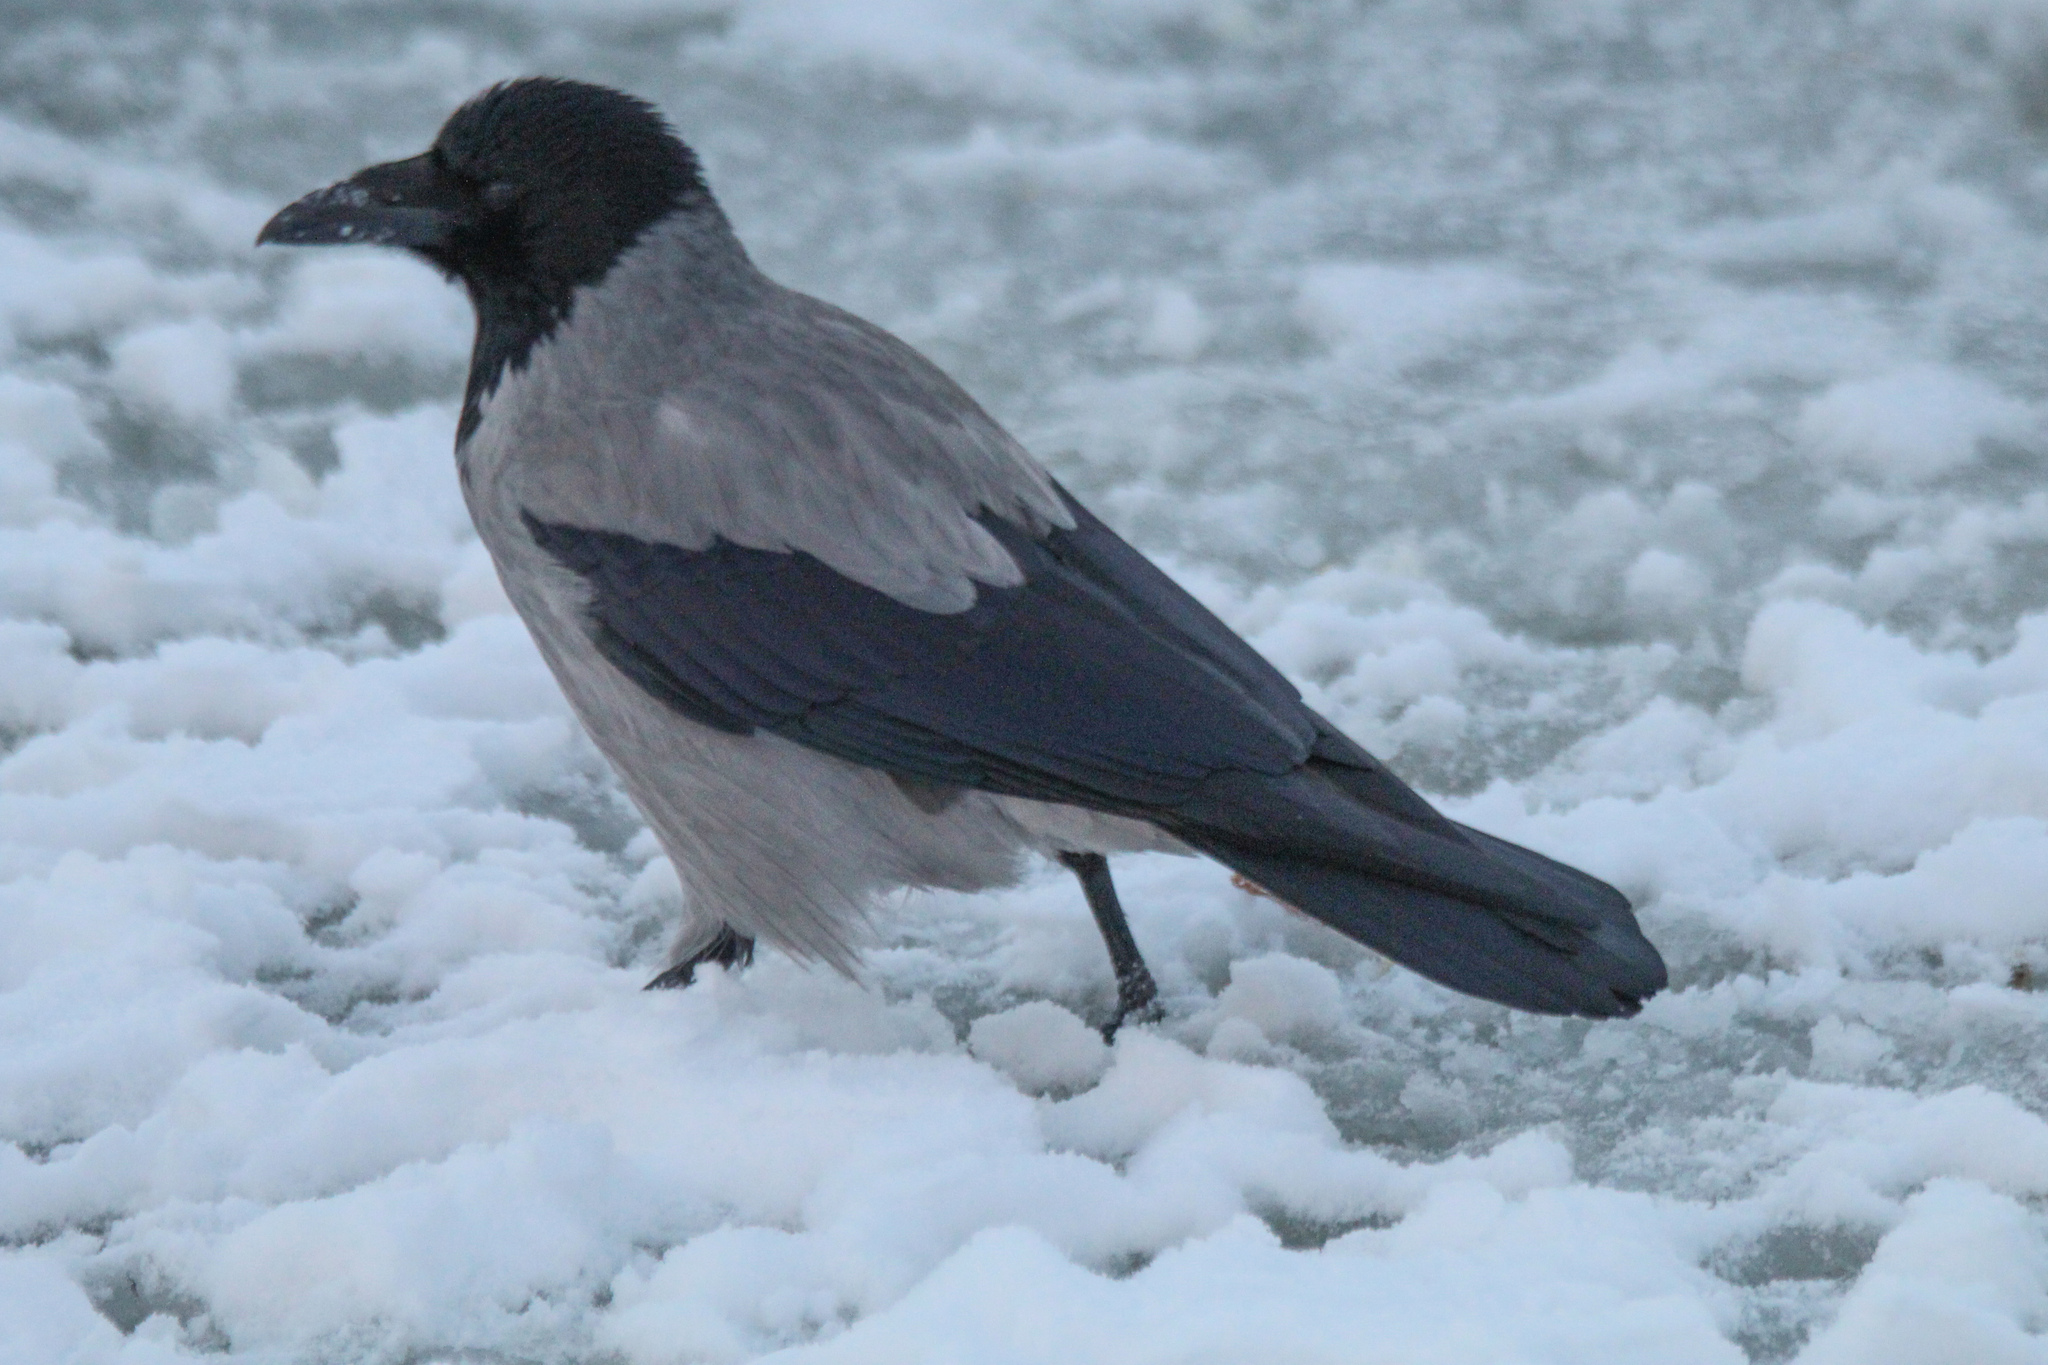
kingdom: Animalia
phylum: Chordata
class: Aves
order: Passeriformes
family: Corvidae
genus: Corvus
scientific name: Corvus cornix
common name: Hooded crow
